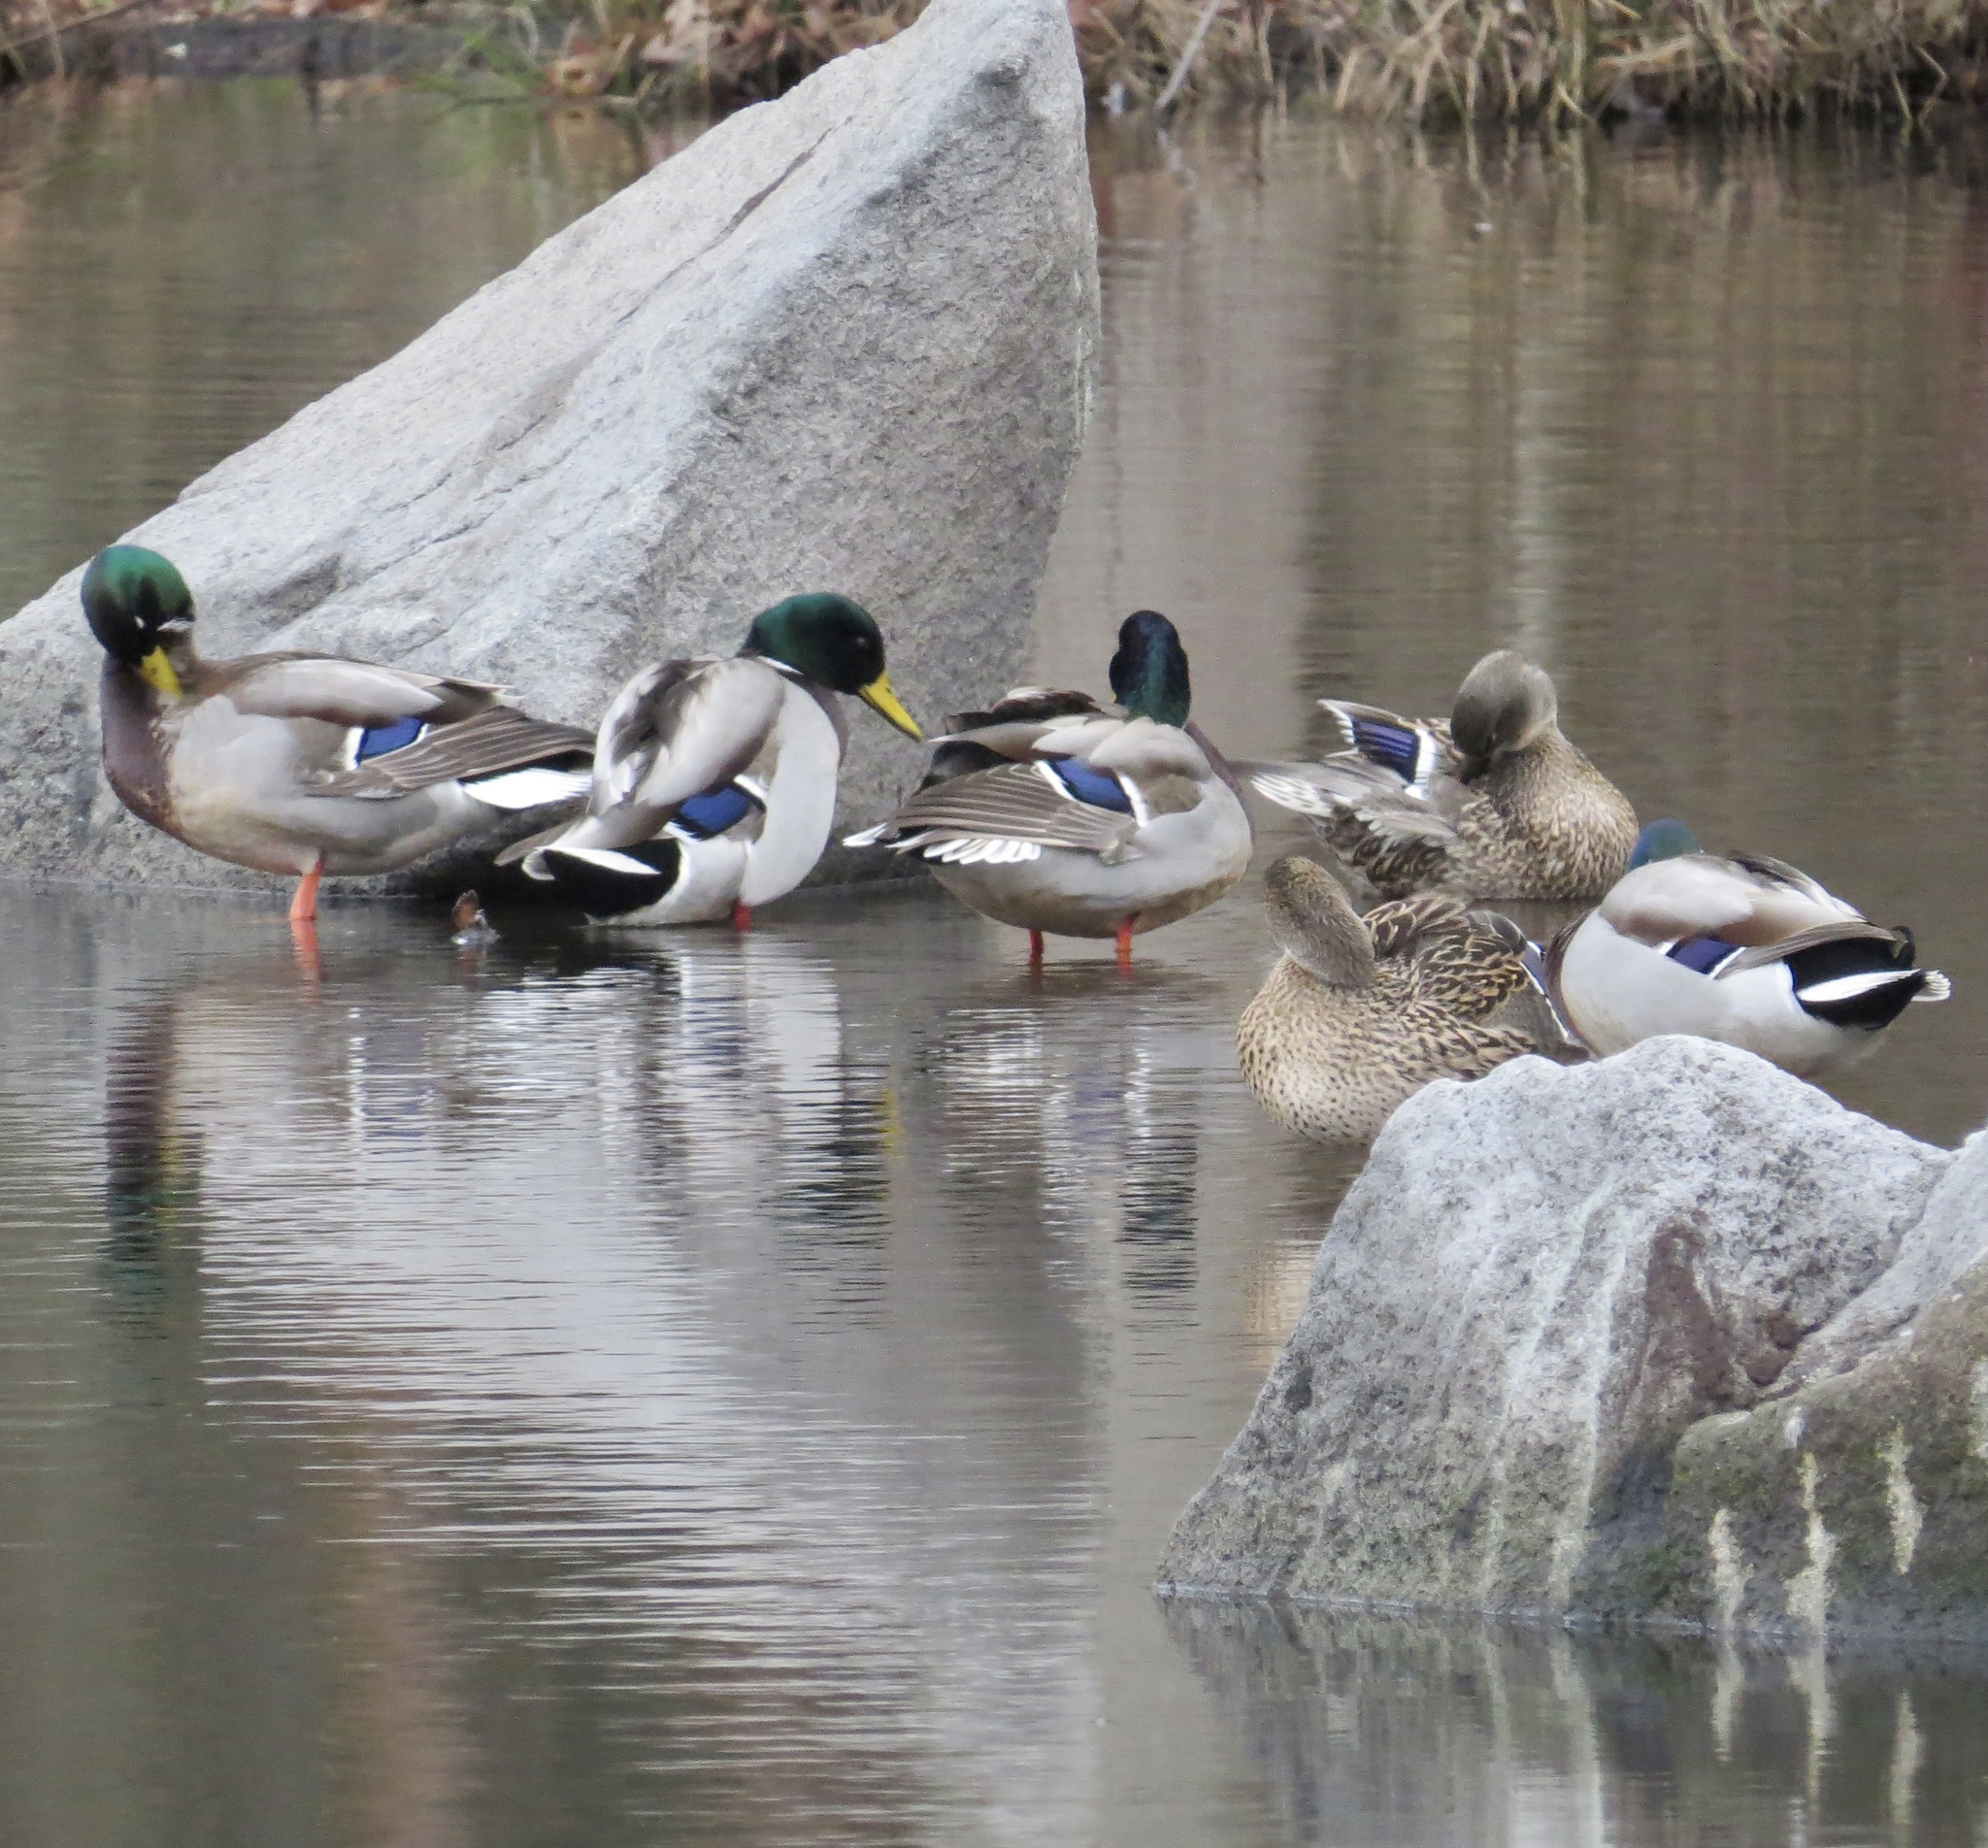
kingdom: Animalia
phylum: Chordata
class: Aves
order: Anseriformes
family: Anatidae
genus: Anas
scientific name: Anas platyrhynchos
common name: Mallard
